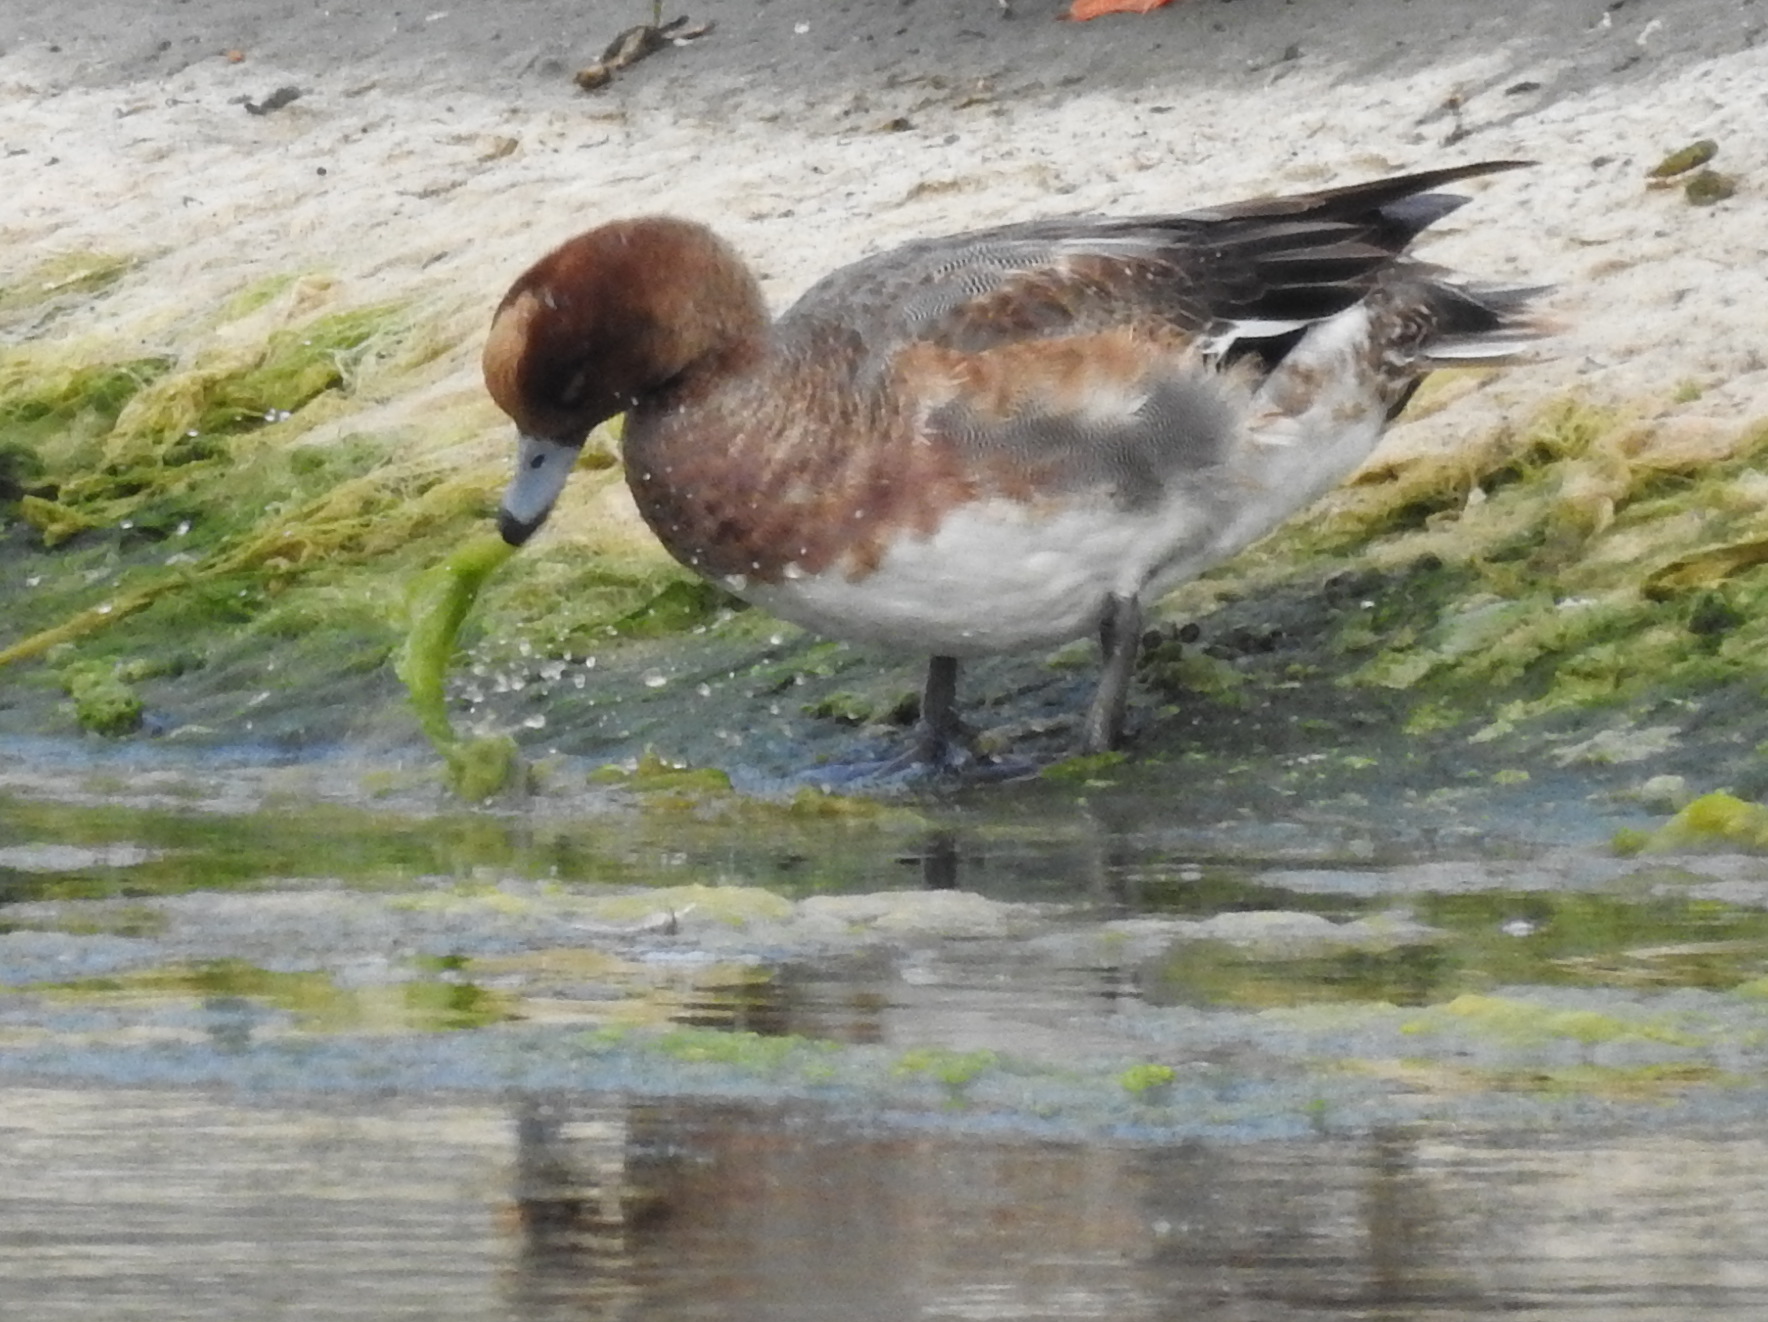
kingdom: Animalia
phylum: Chordata
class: Aves
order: Anseriformes
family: Anatidae
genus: Mareca
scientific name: Mareca penelope
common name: Eurasian wigeon
